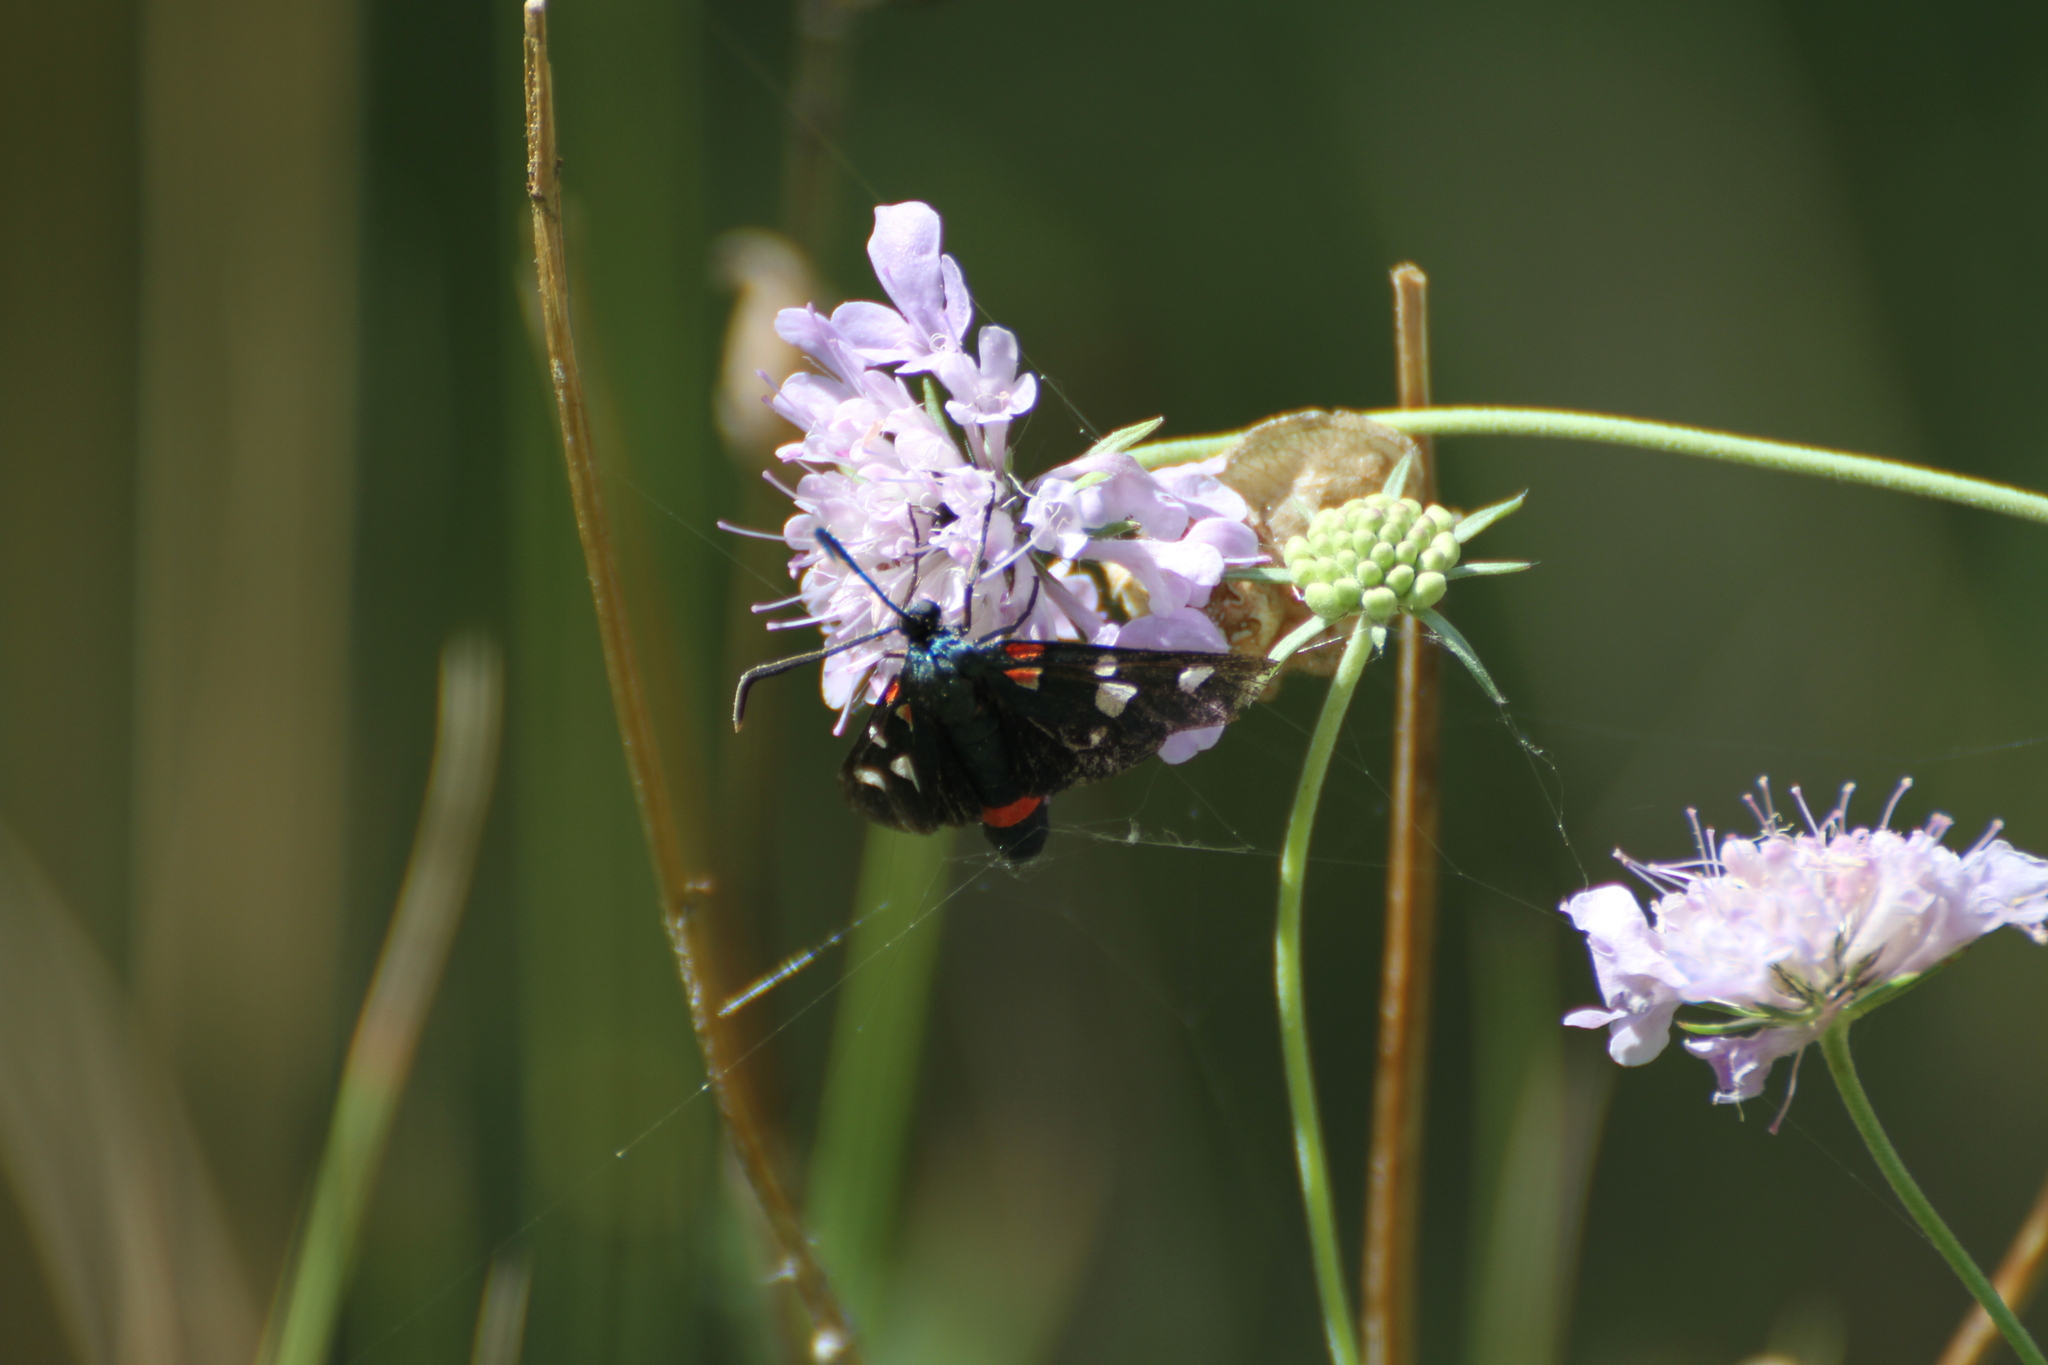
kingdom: Animalia
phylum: Arthropoda
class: Insecta
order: Lepidoptera
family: Zygaenidae
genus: Zygaena
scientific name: Zygaena ephialtes
